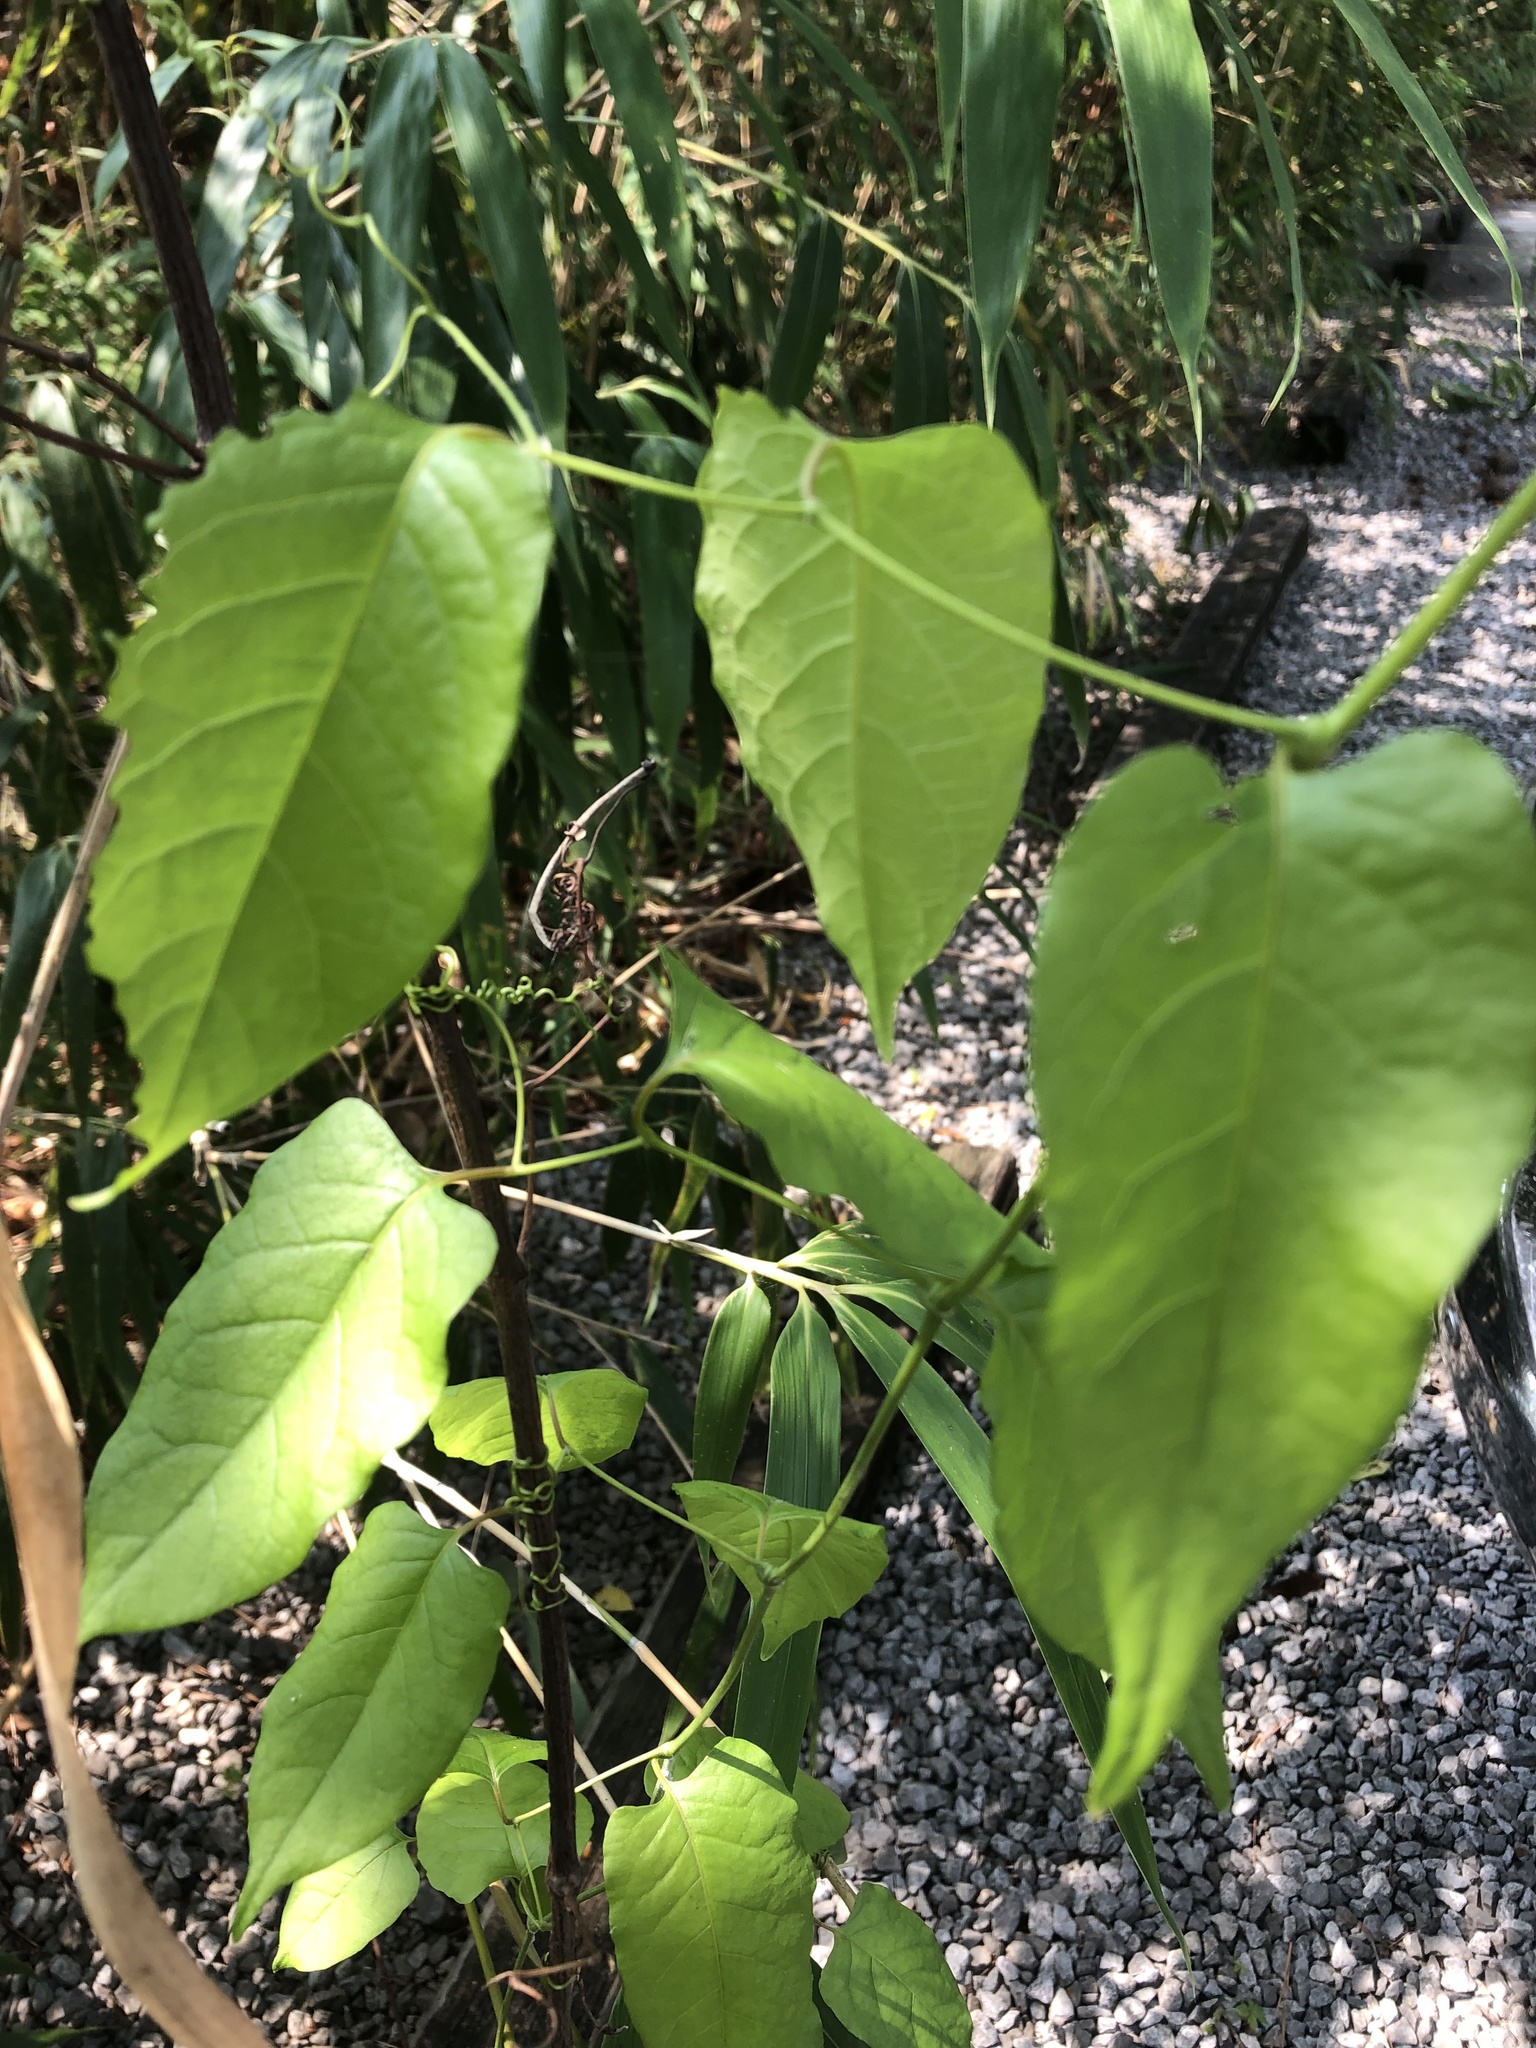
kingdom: Plantae
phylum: Tracheophyta
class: Magnoliopsida
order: Caryophyllales
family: Polygonaceae
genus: Brunnichia
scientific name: Brunnichia ovata
